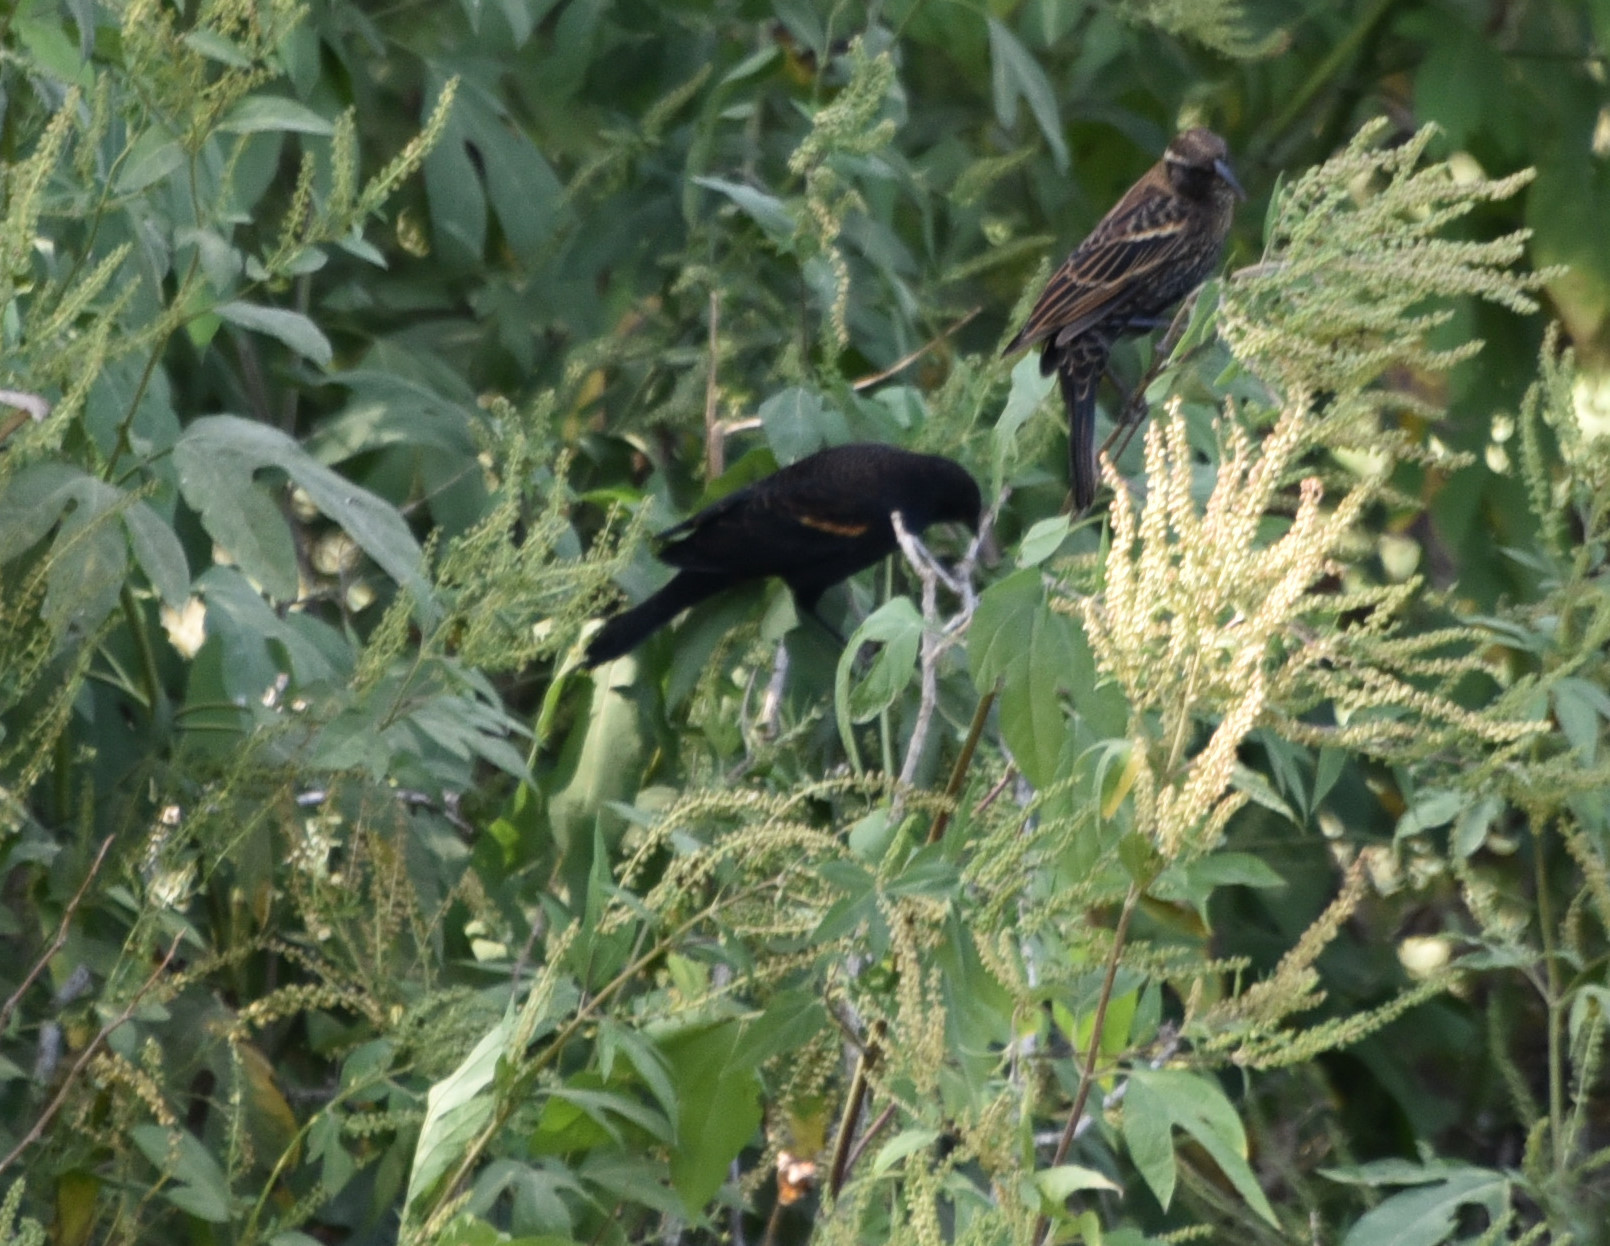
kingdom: Animalia
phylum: Chordata
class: Aves
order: Passeriformes
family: Icteridae
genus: Agelaius
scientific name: Agelaius phoeniceus
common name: Red-winged blackbird
